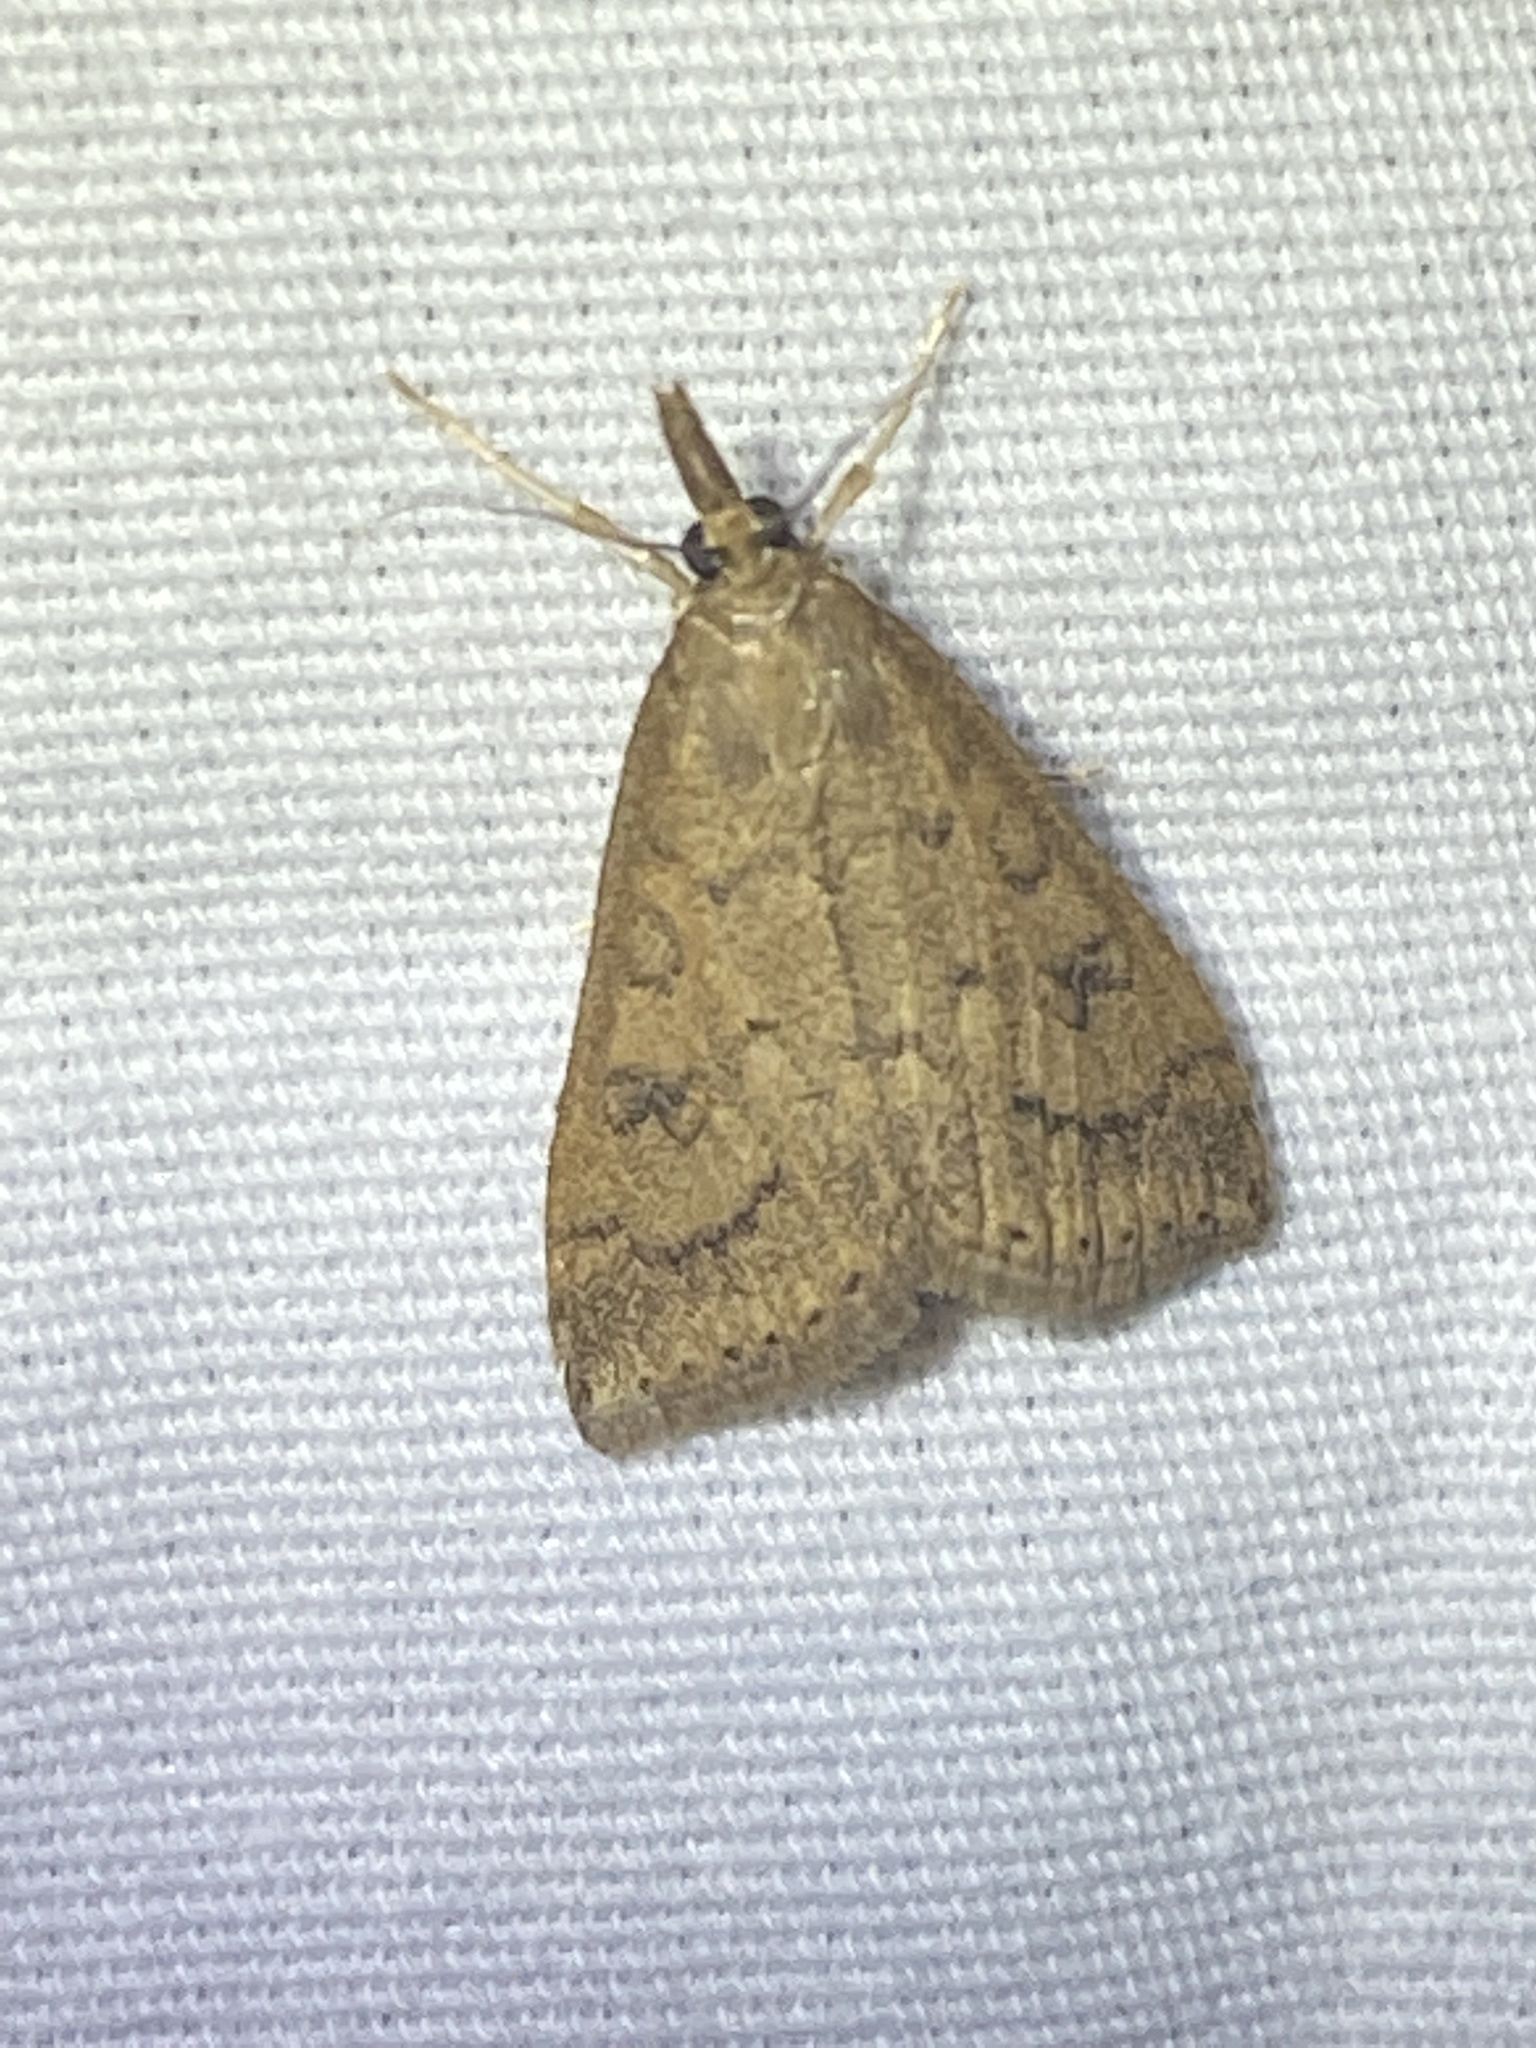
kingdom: Animalia
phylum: Arthropoda
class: Insecta
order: Lepidoptera
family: Crambidae
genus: Udea
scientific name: Udea rubigalis
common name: Celery leaftier moth
